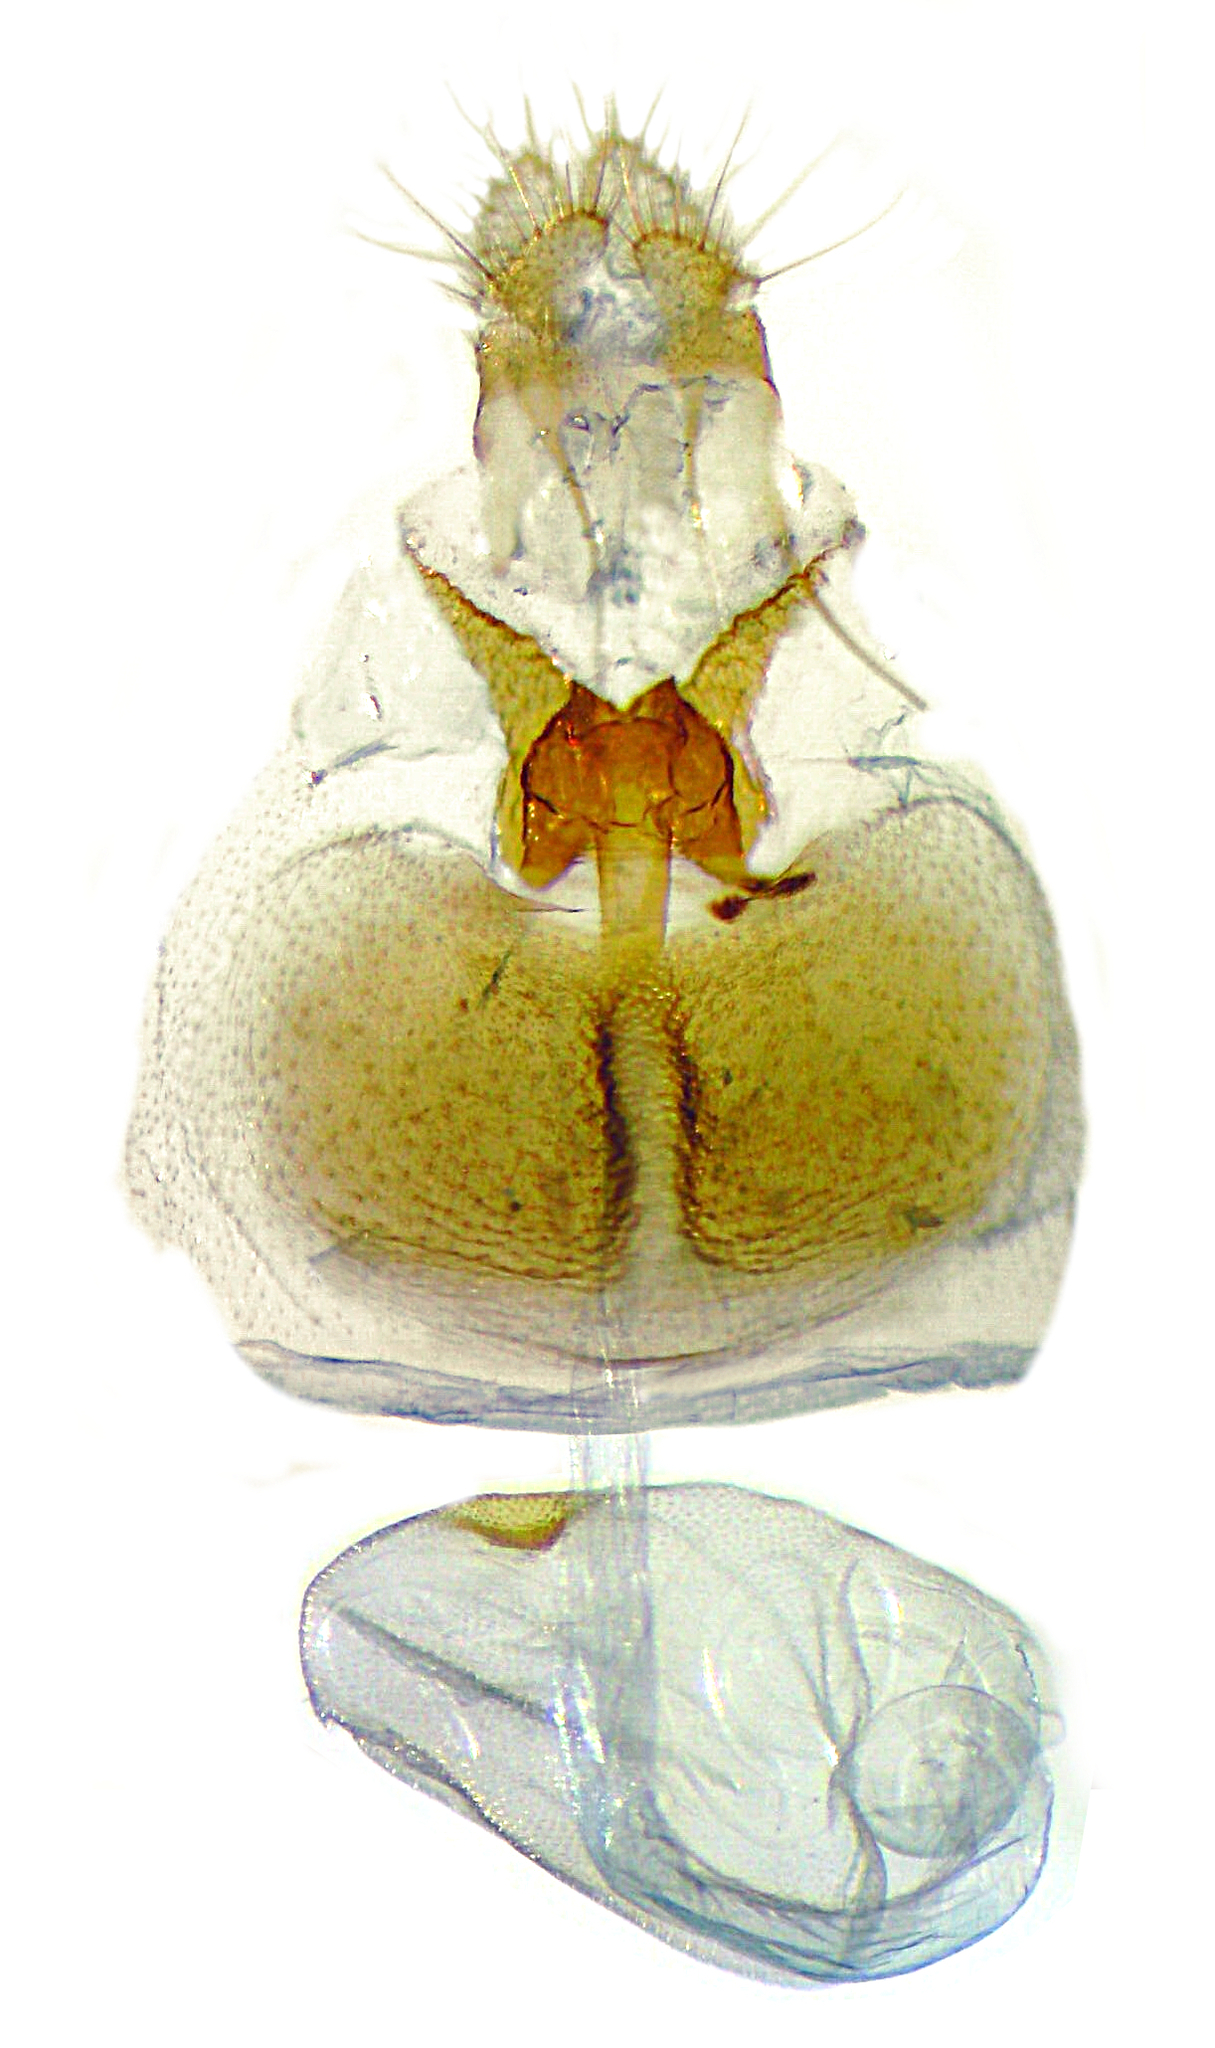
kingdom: Animalia
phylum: Arthropoda
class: Insecta
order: Lepidoptera
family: Tortricidae
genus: Olethreutes
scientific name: Olethreutes fasciatana
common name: Banded olethreutes moth
